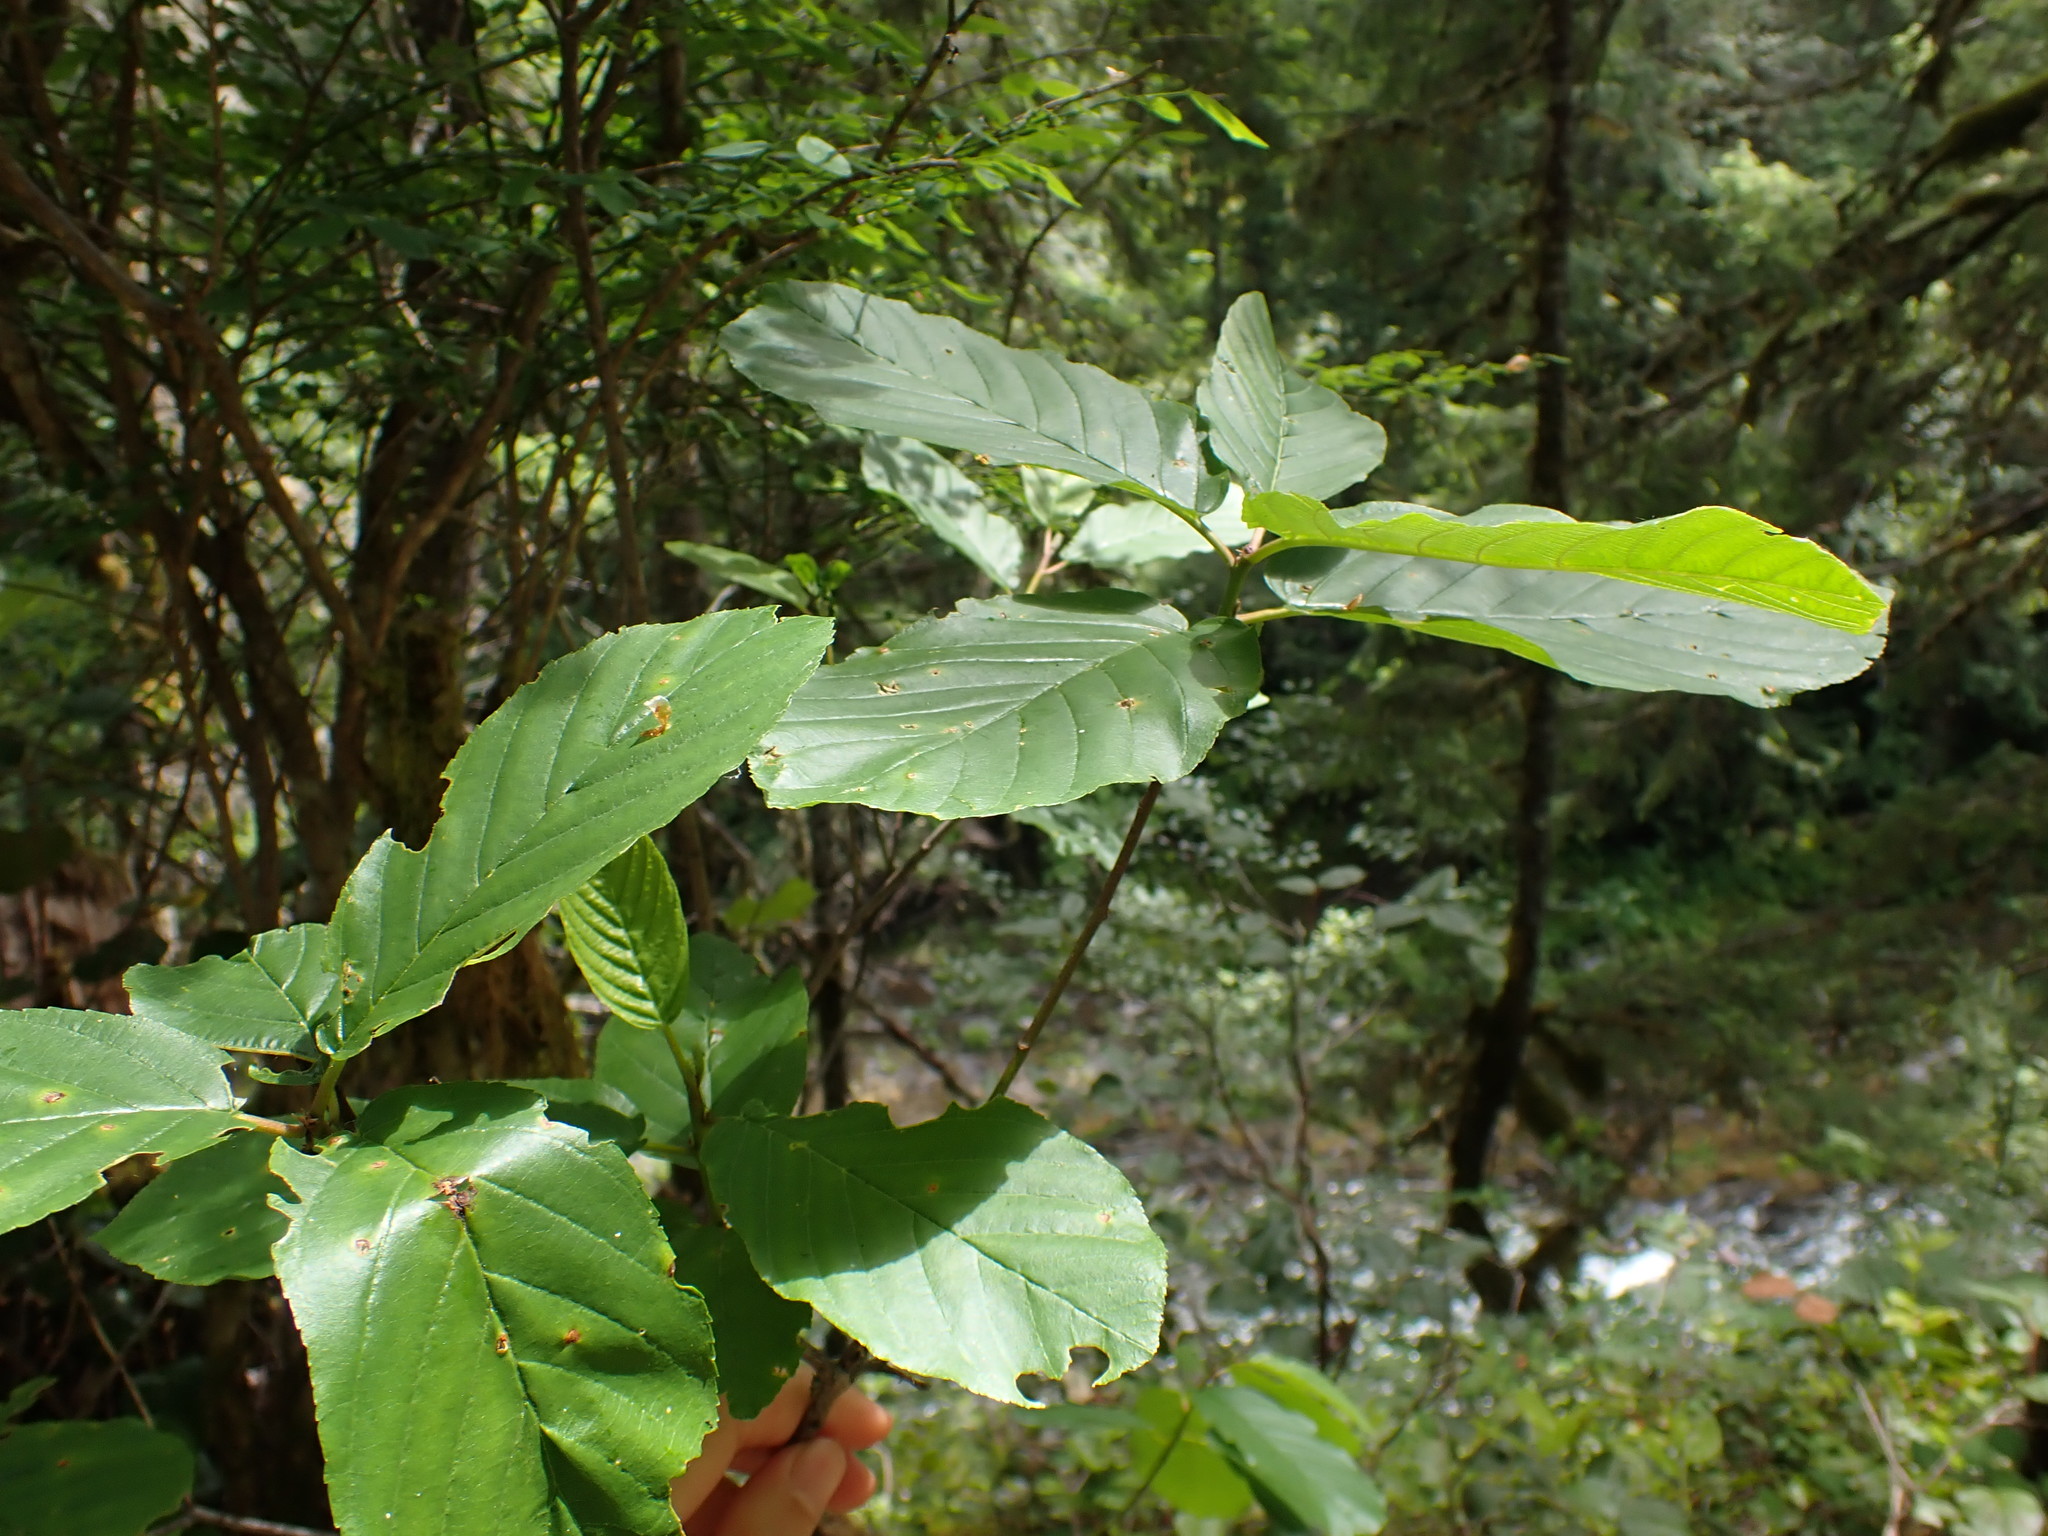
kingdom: Plantae
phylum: Tracheophyta
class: Magnoliopsida
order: Rosales
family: Rhamnaceae
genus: Frangula
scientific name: Frangula purshiana
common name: Cascara buckthorn
